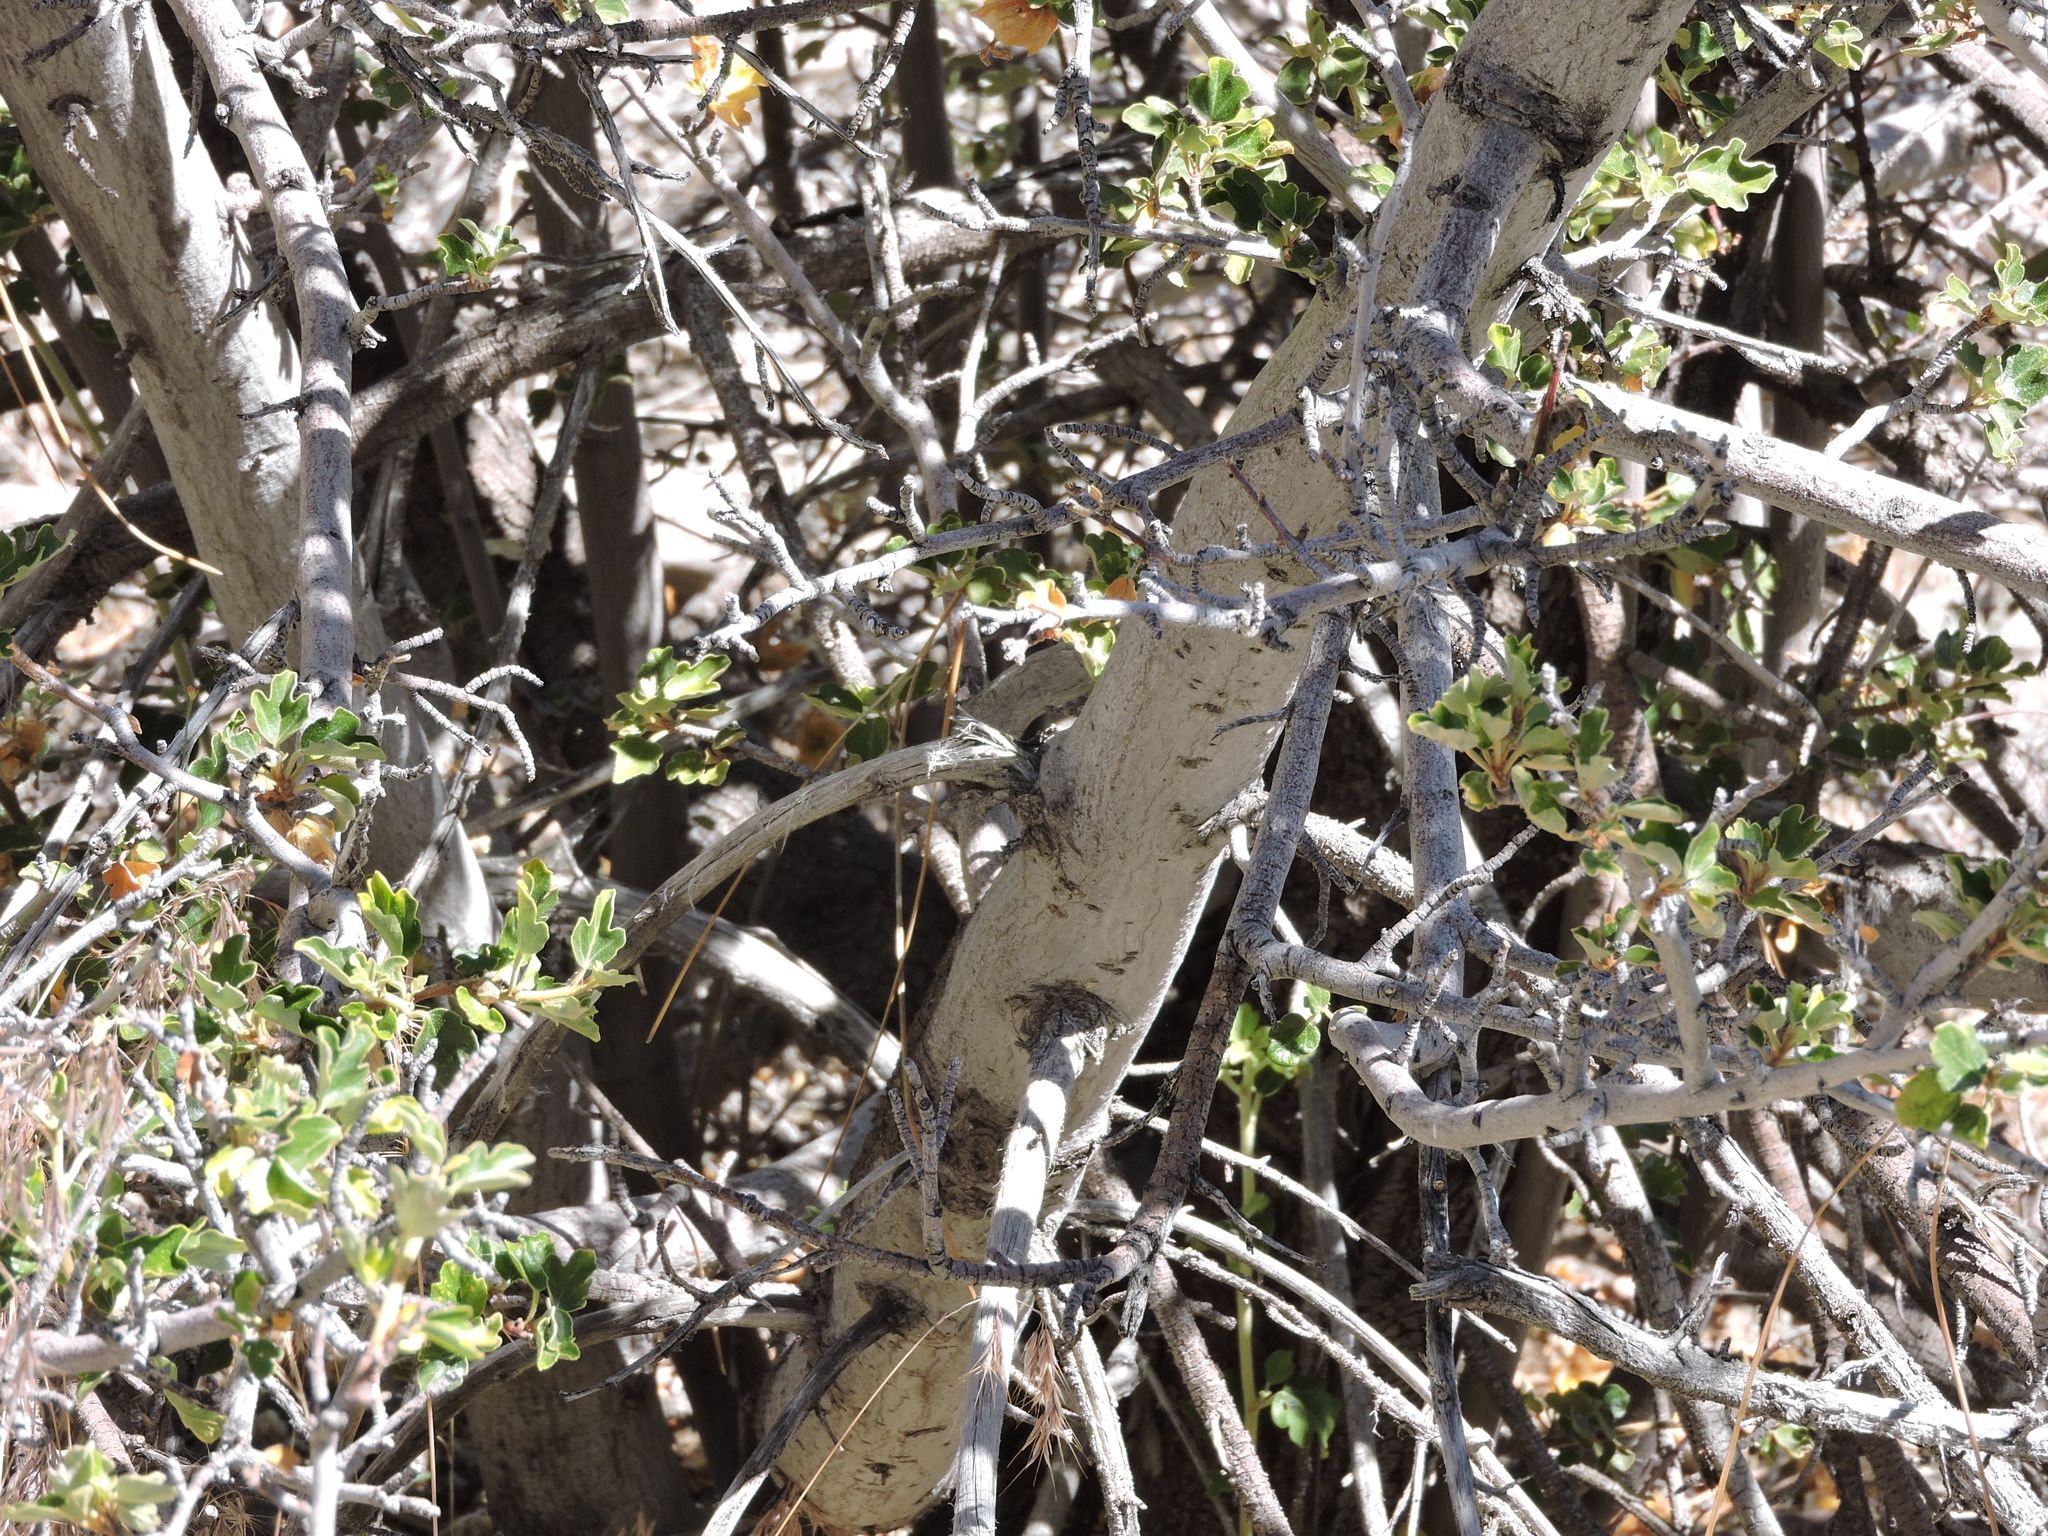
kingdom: Plantae
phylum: Tracheophyta
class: Magnoliopsida
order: Malvales
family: Malvaceae
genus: Fremontodendron
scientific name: Fremontodendron californicum
